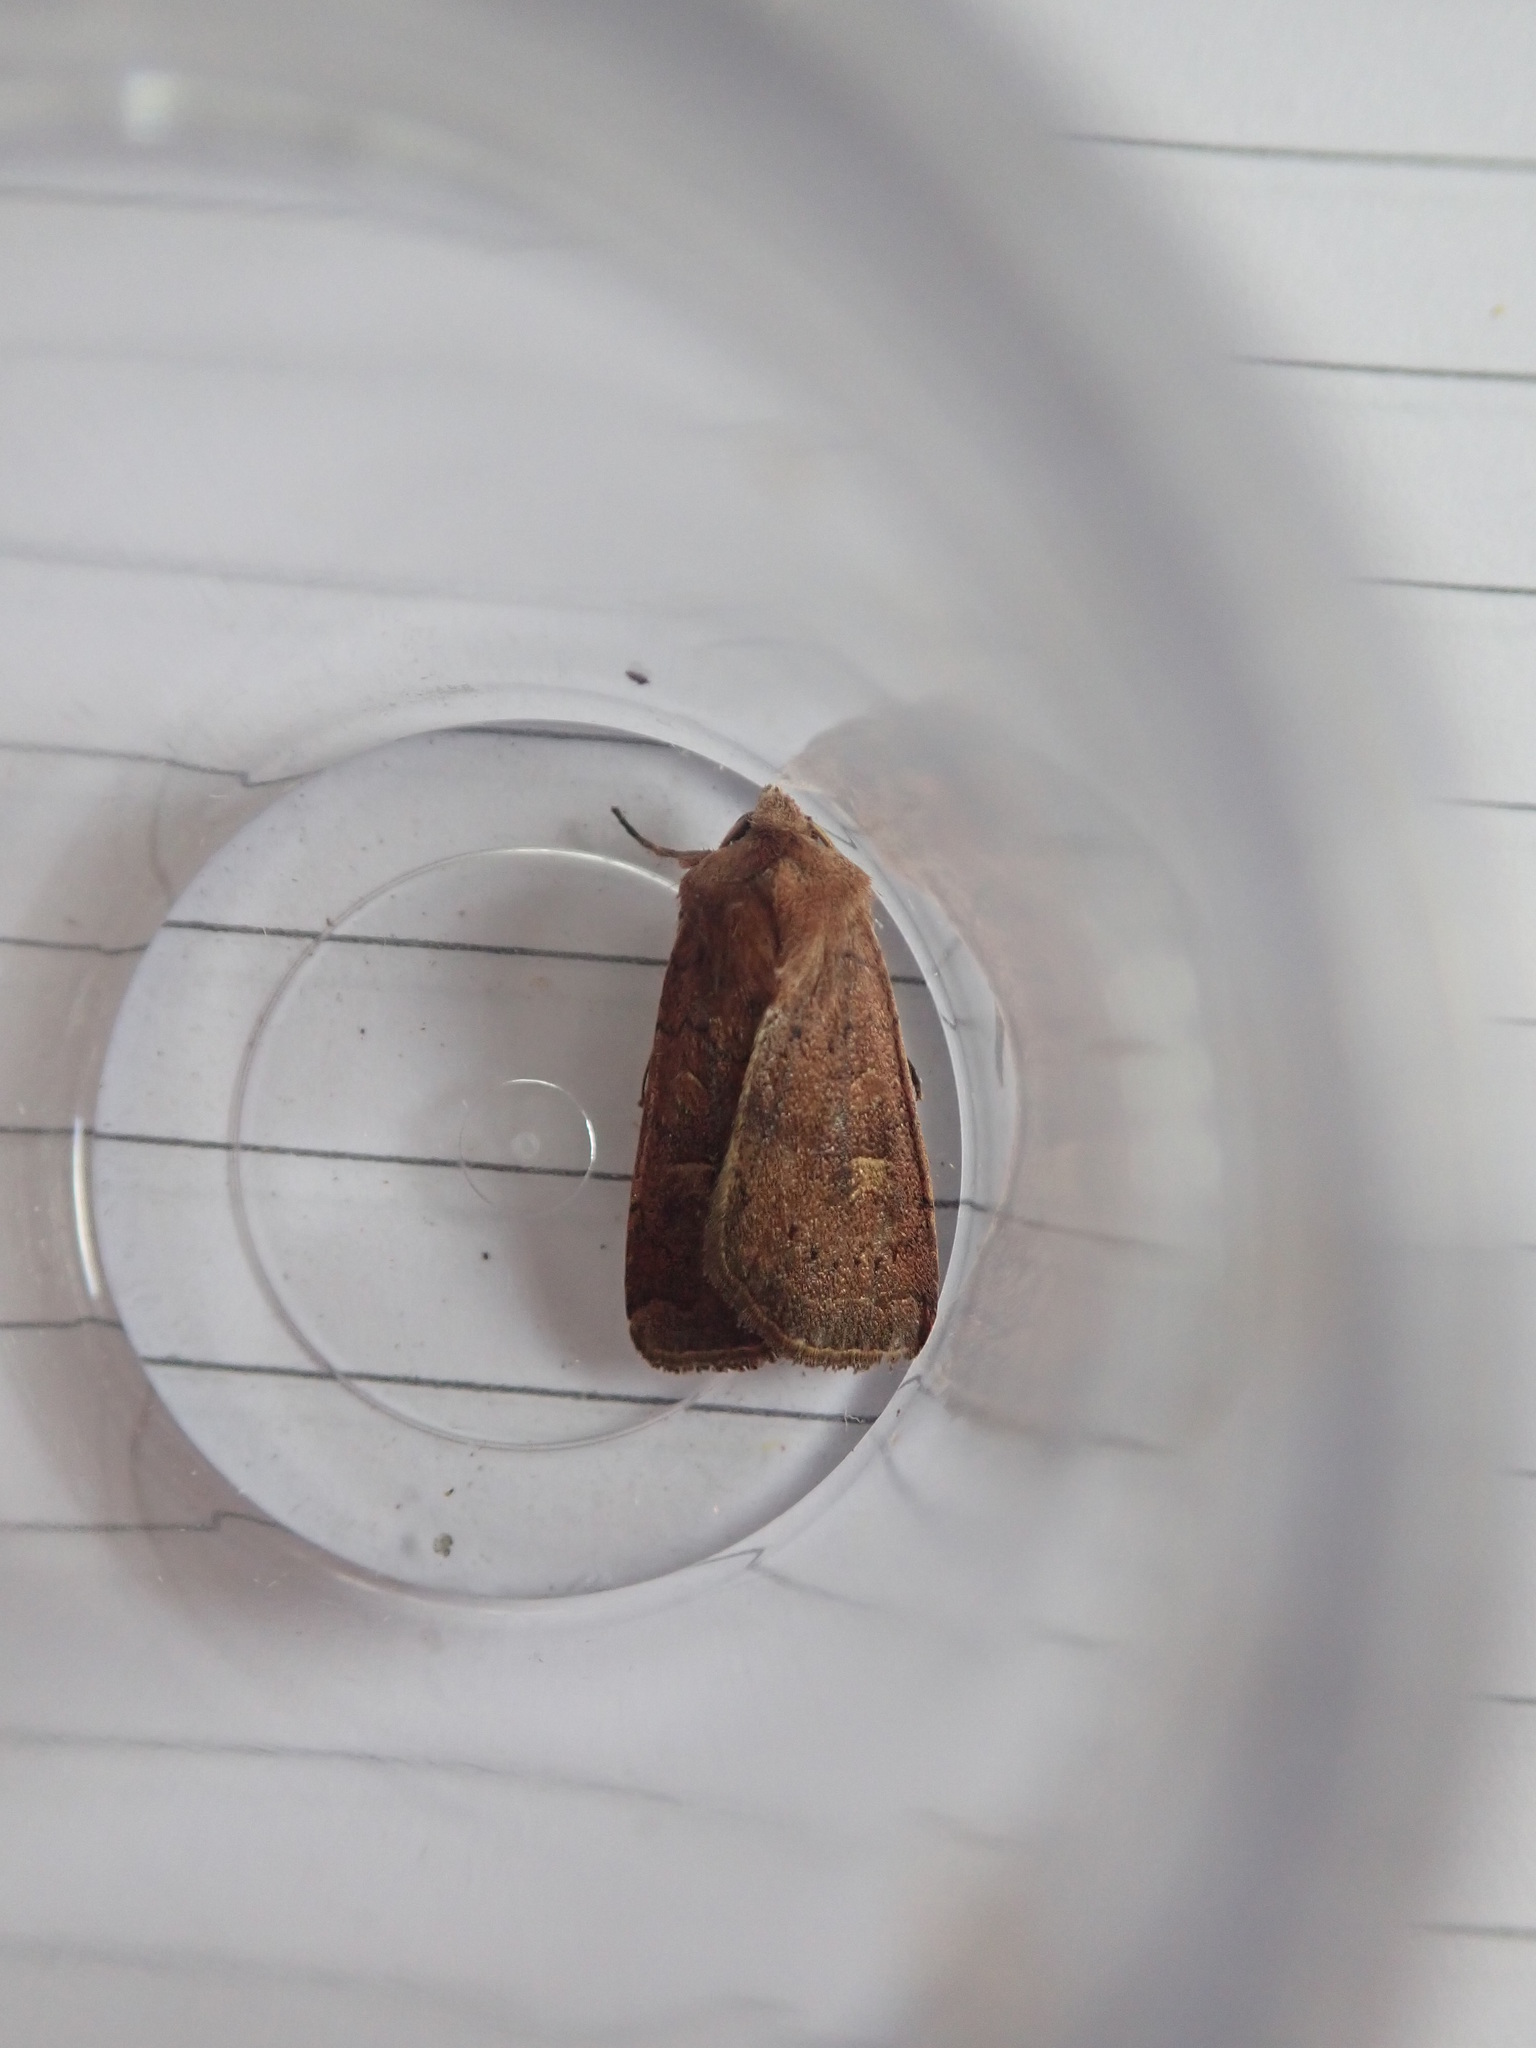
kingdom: Animalia
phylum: Arthropoda
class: Insecta
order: Lepidoptera
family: Noctuidae
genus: Xestia
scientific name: Xestia xanthographa
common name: Square-spot rustic
